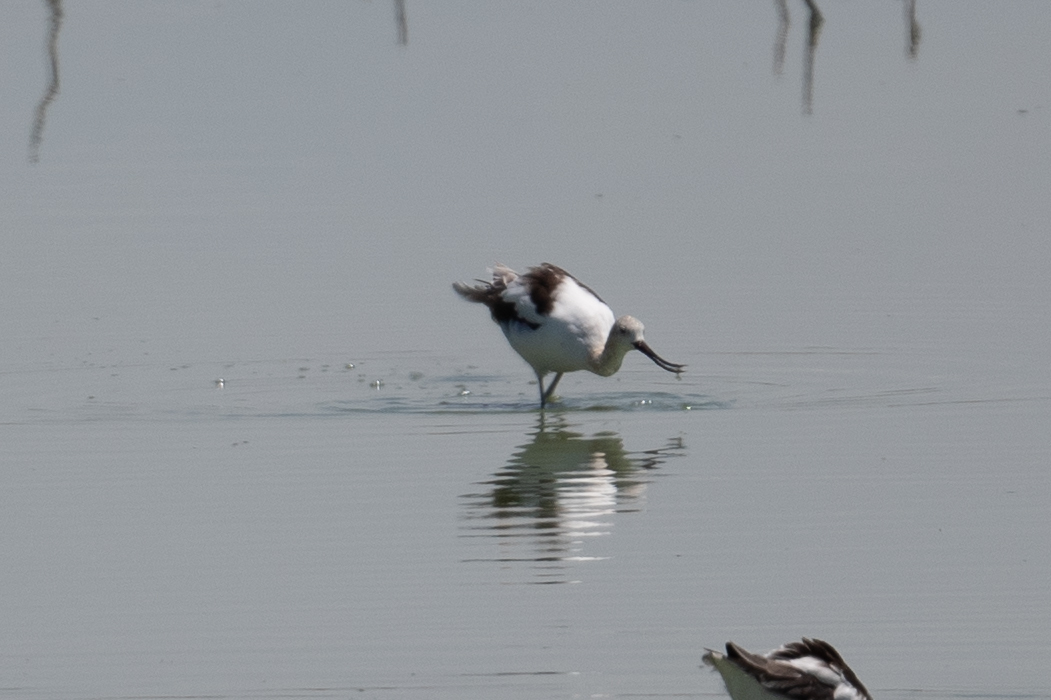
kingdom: Animalia
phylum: Chordata
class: Aves
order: Charadriiformes
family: Recurvirostridae
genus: Recurvirostra
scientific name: Recurvirostra americana
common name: American avocet
